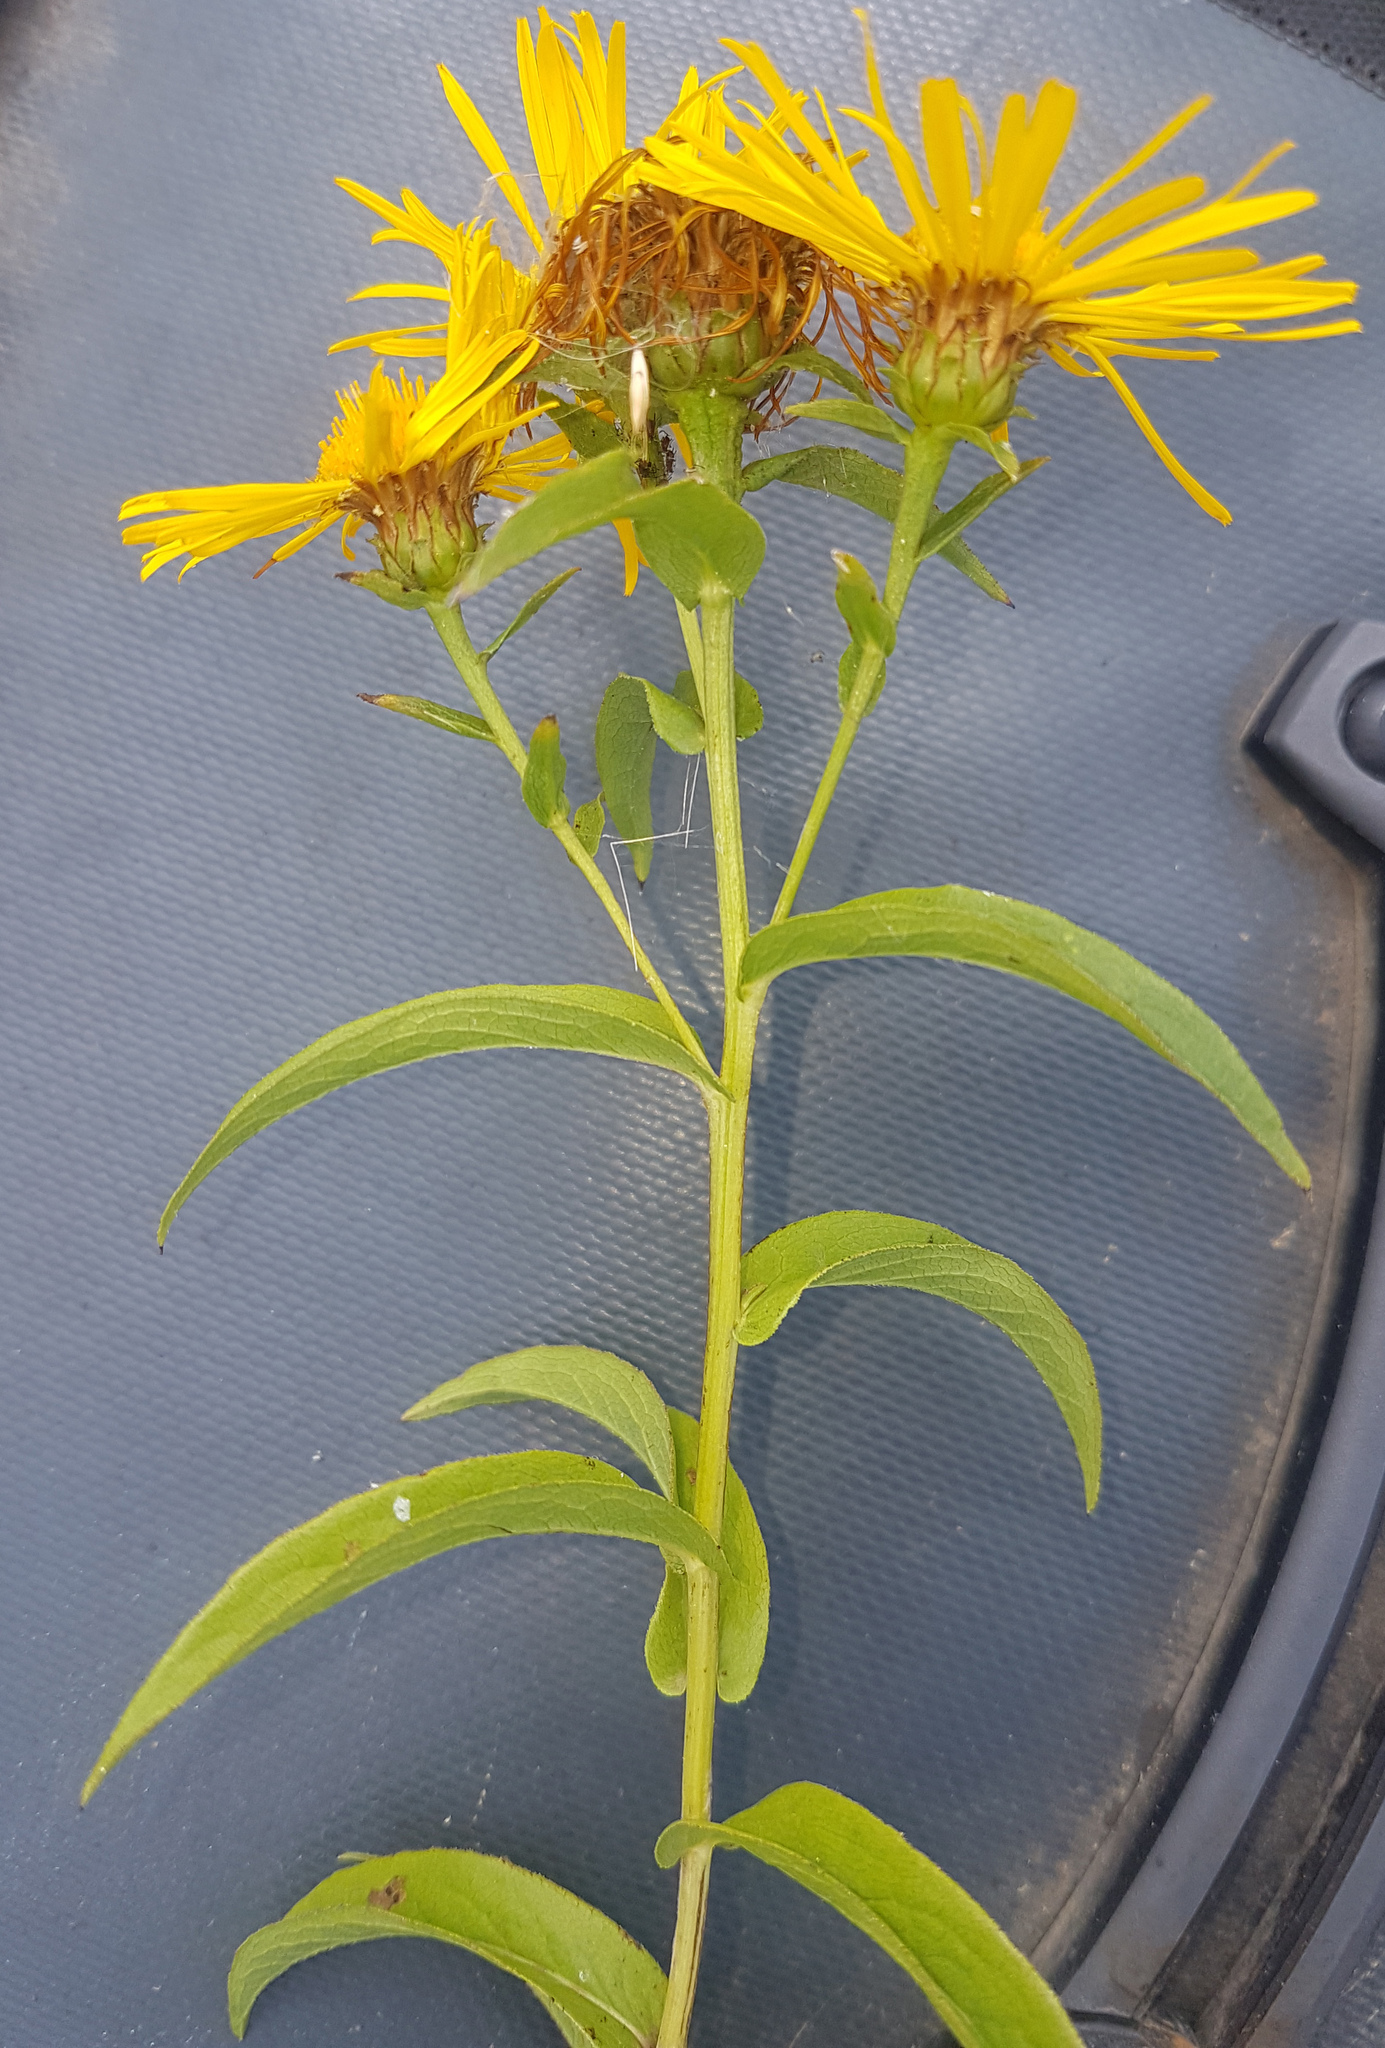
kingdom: Plantae
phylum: Tracheophyta
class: Magnoliopsida
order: Asterales
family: Asteraceae
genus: Pentanema
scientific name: Pentanema salicinum
